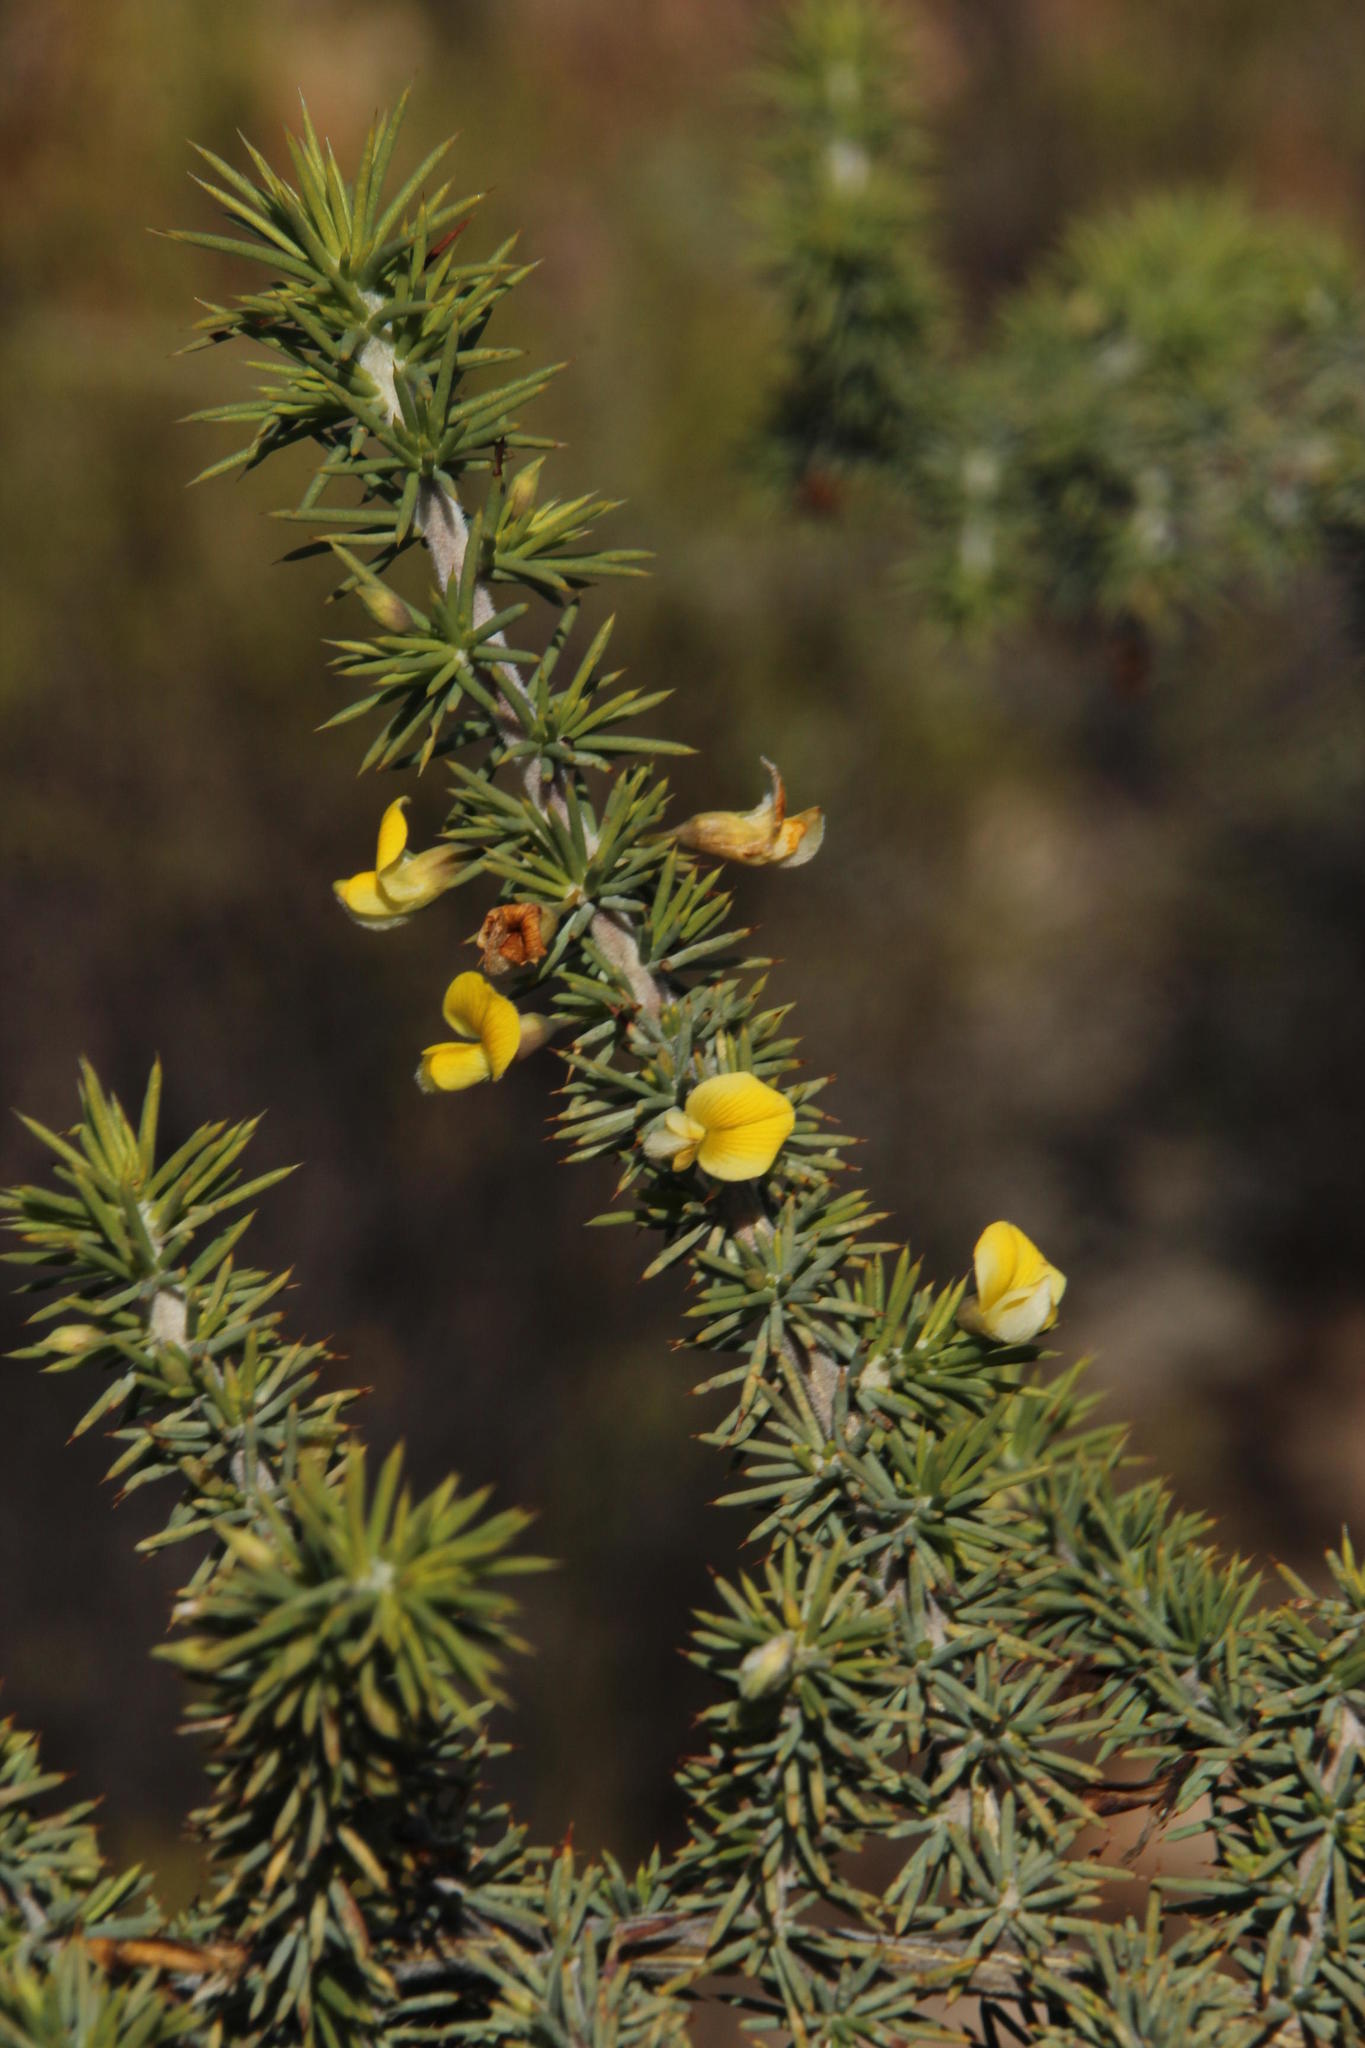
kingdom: Plantae
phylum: Tracheophyta
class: Magnoliopsida
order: Fabales
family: Fabaceae
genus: Aspalathus
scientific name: Aspalathus rigidifolia
